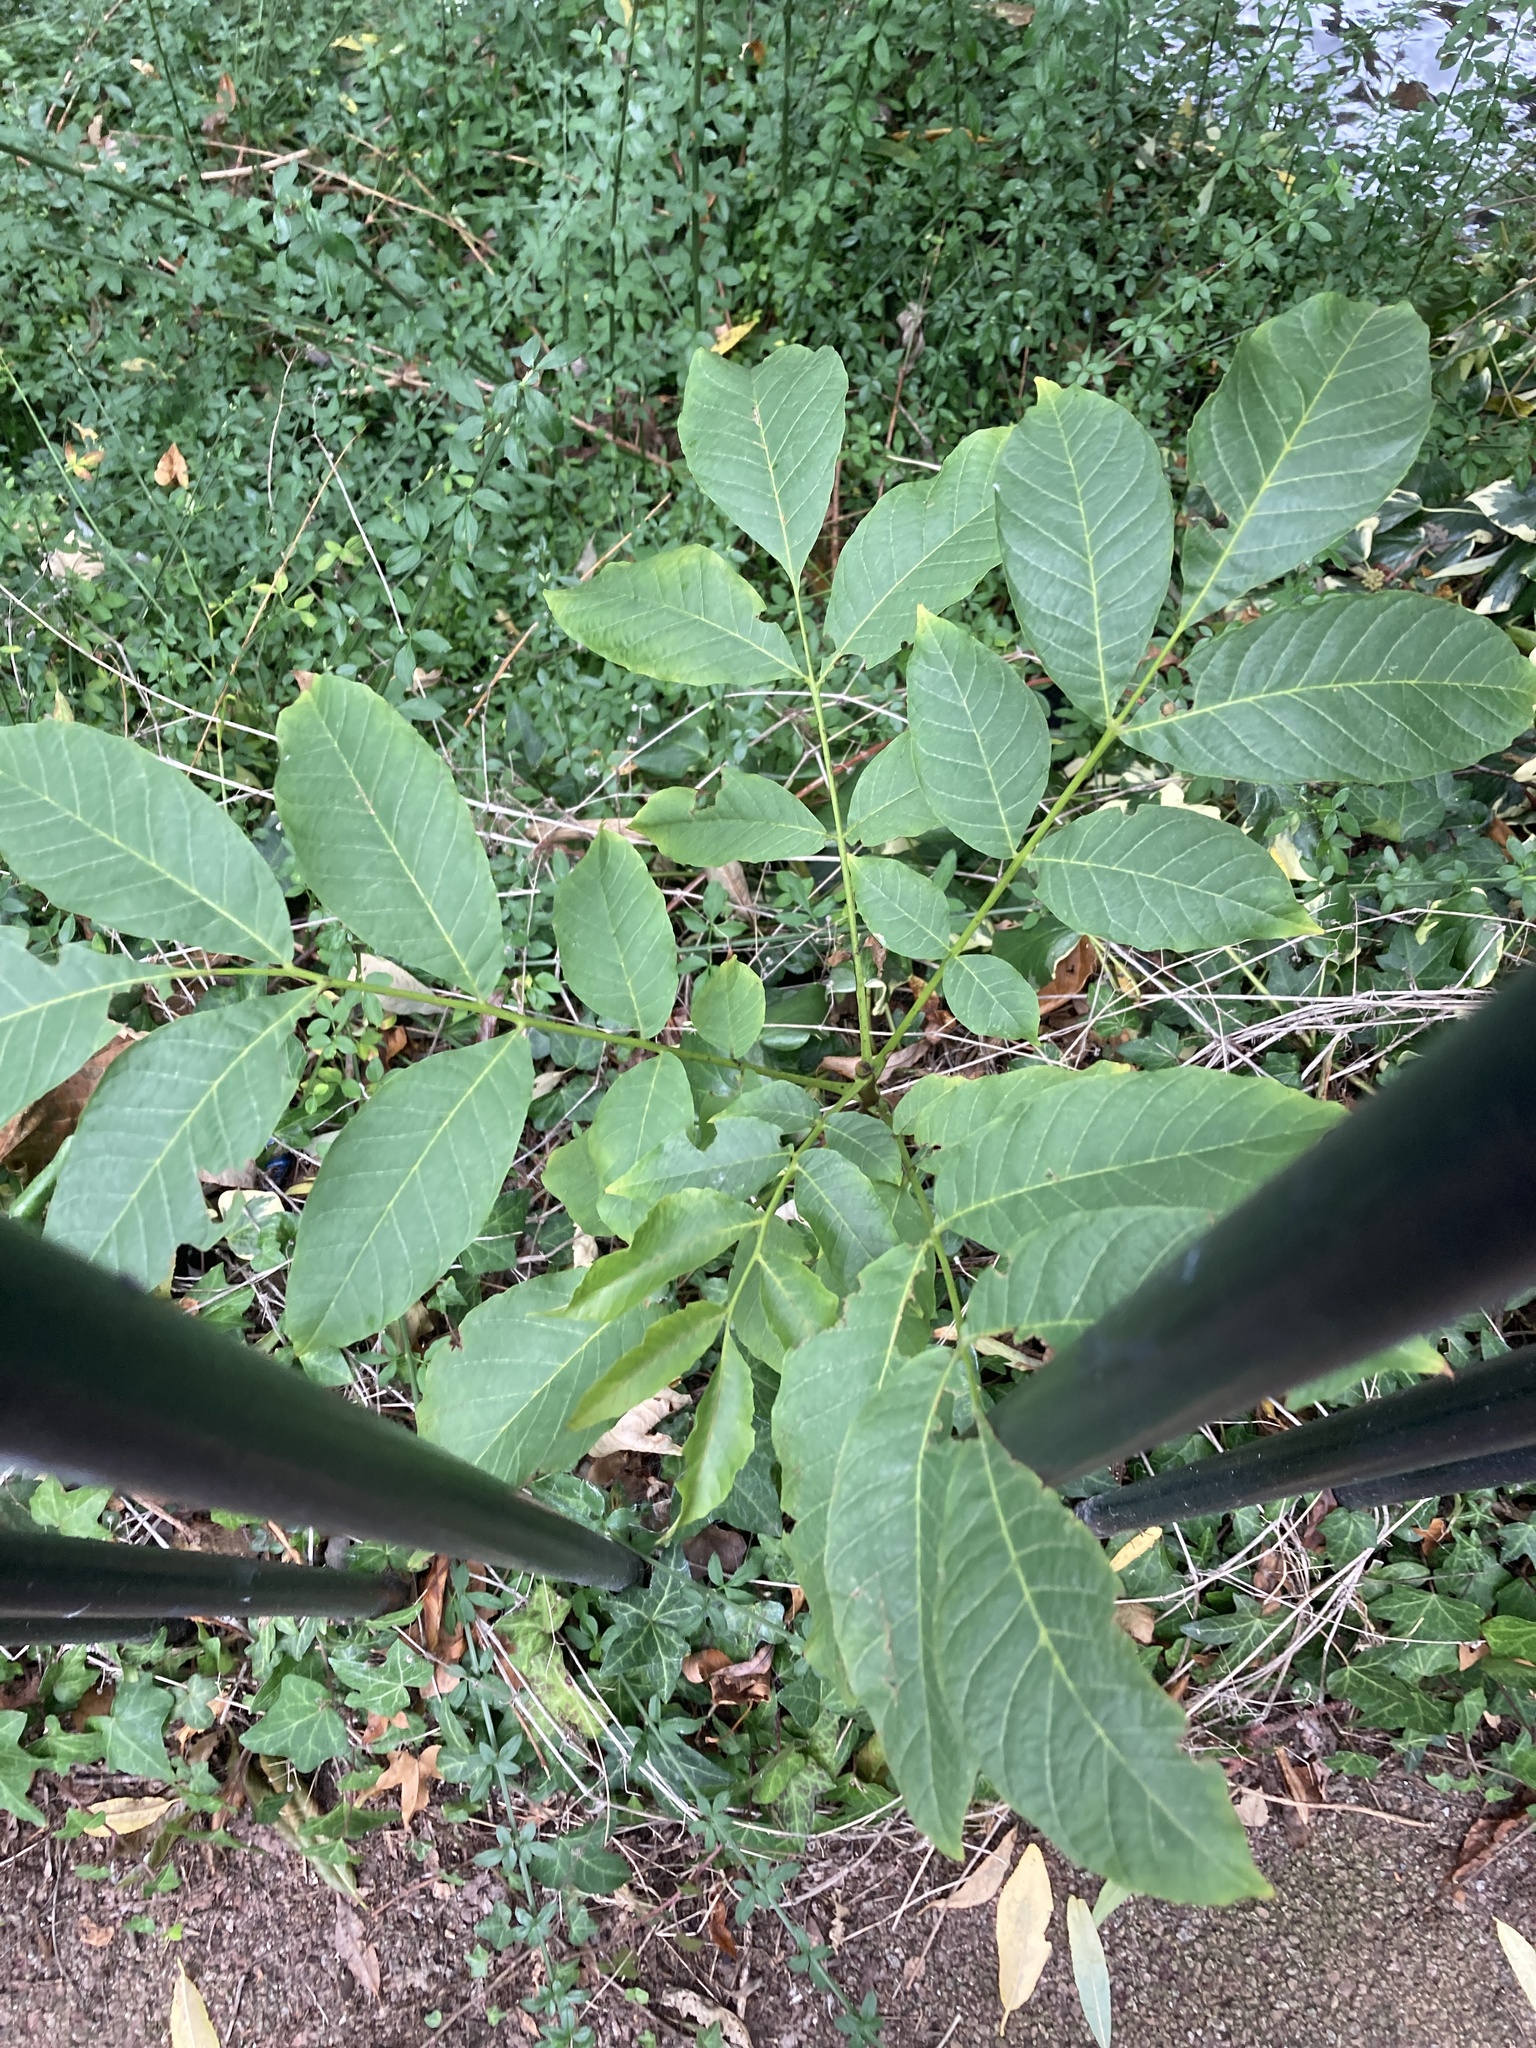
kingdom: Plantae
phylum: Tracheophyta
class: Magnoliopsida
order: Fagales
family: Juglandaceae
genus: Juglans
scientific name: Juglans regia
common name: Walnut
